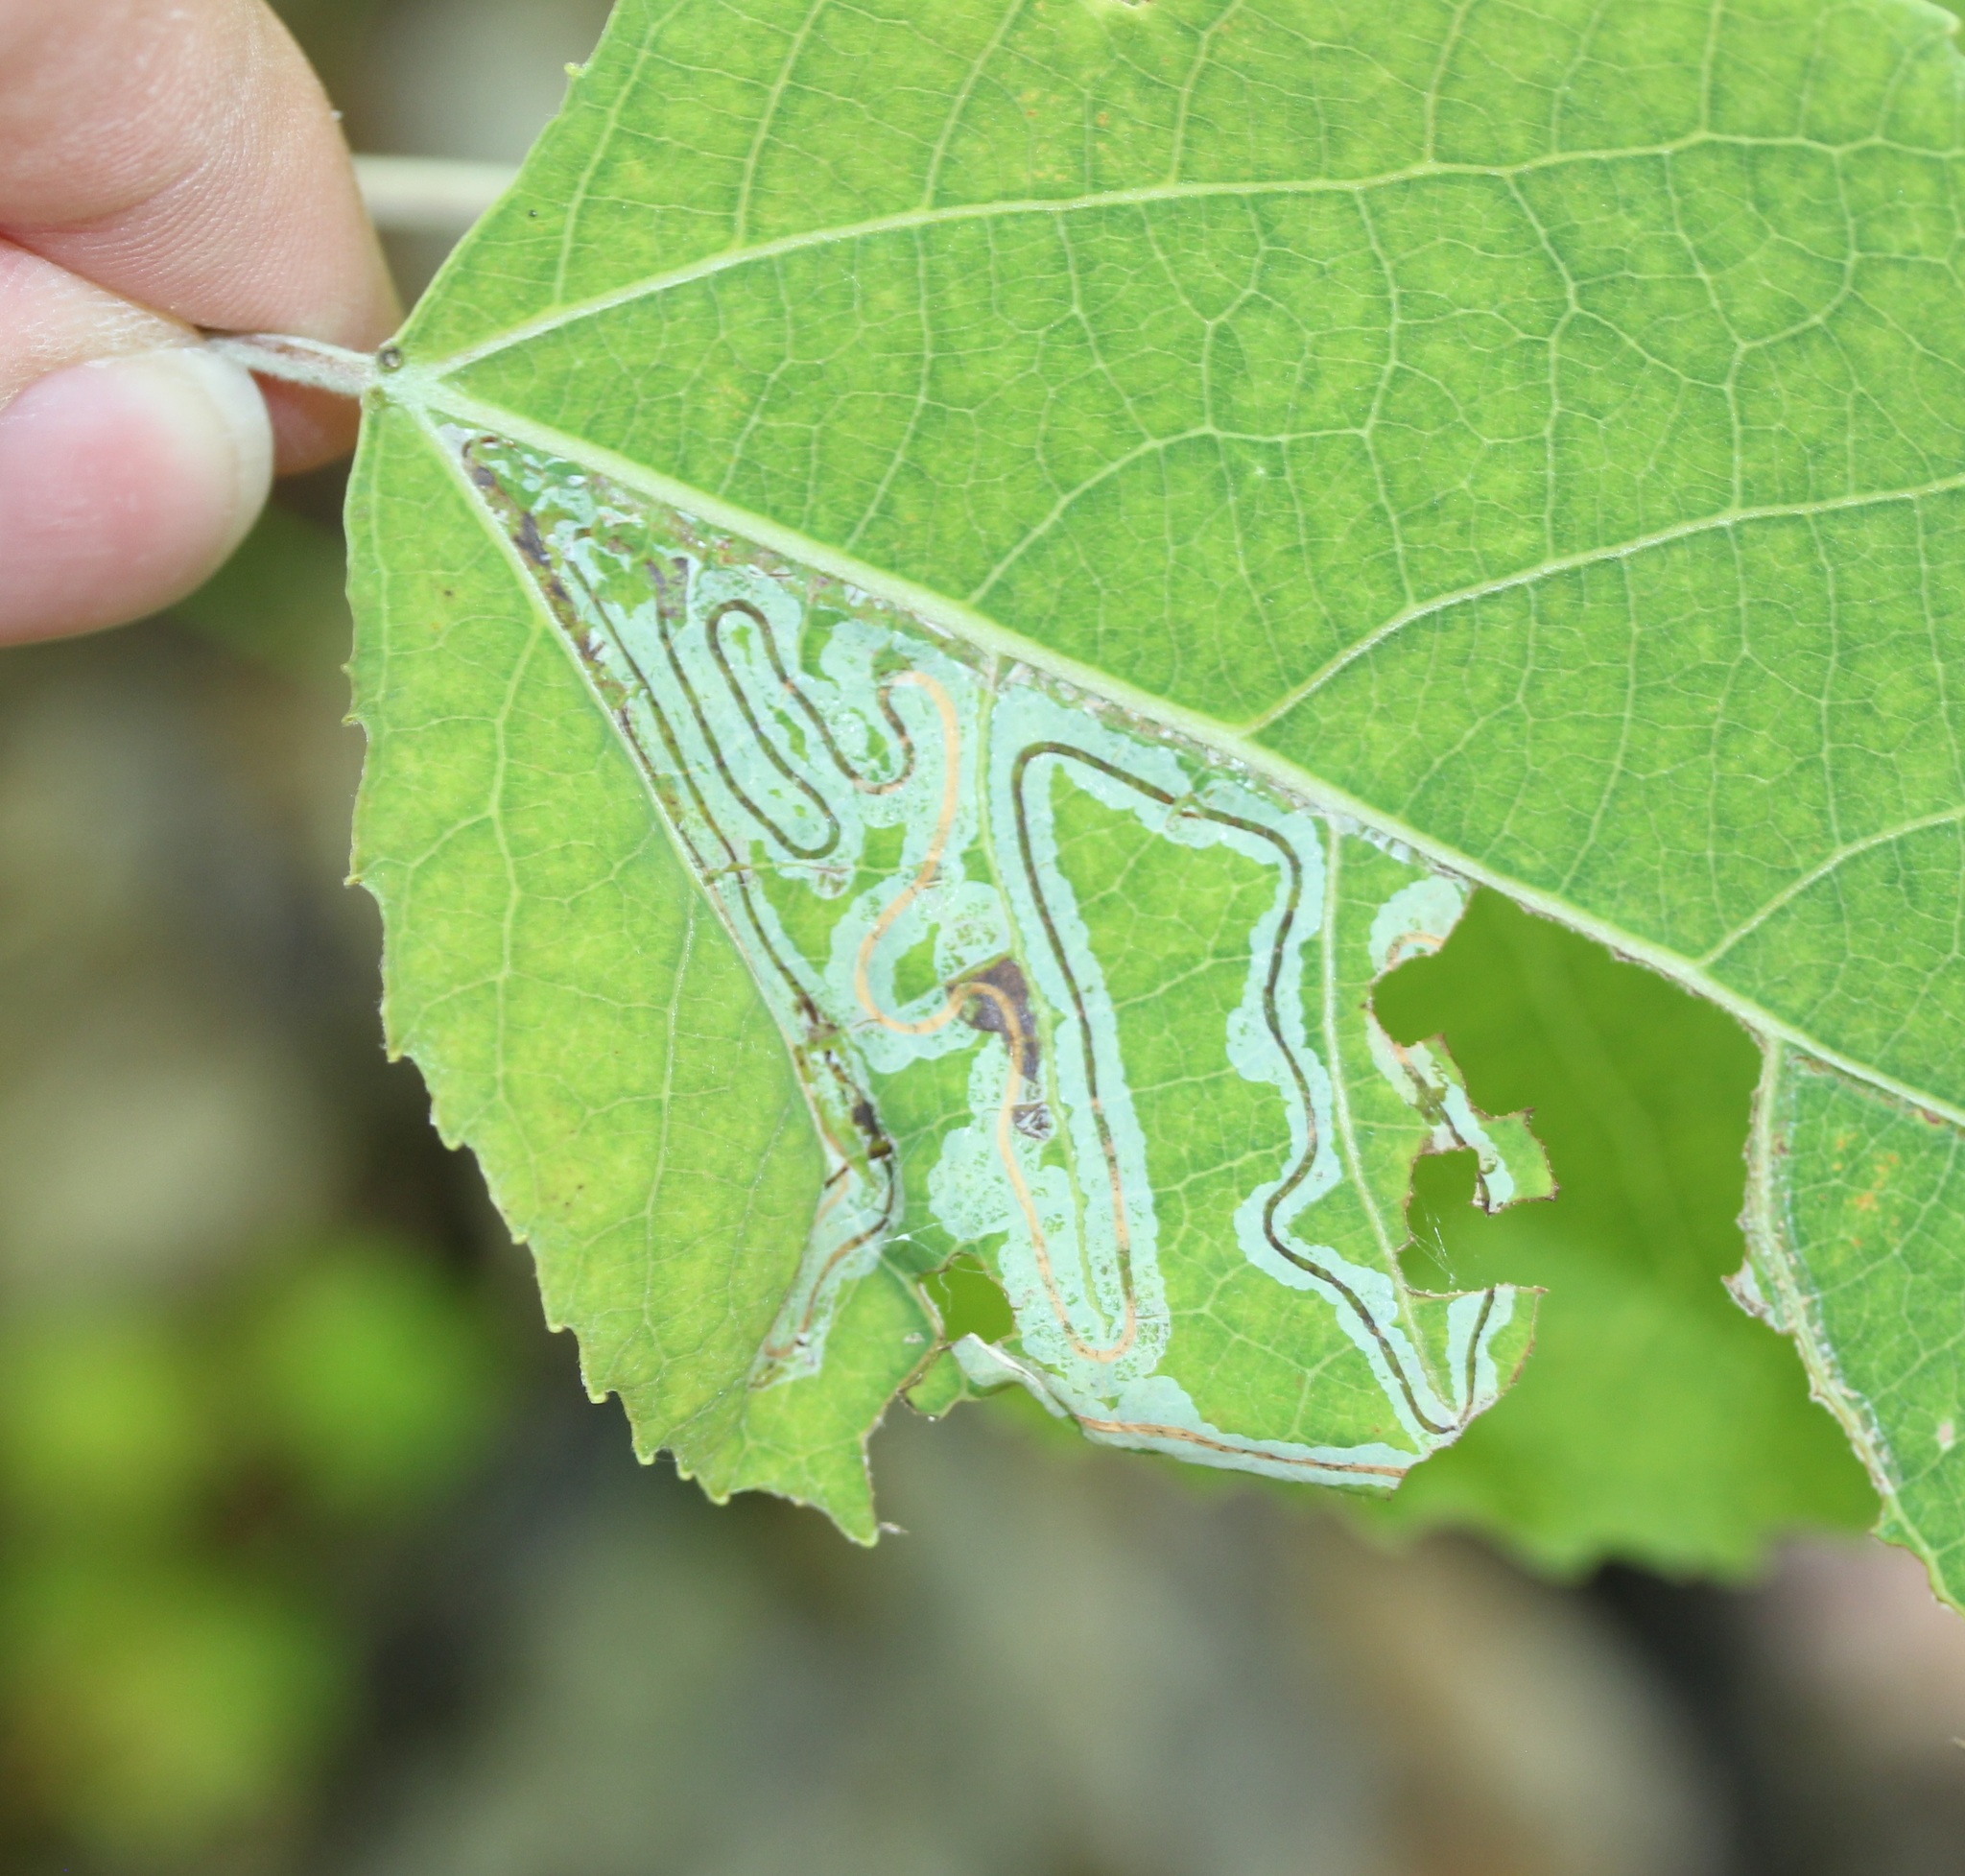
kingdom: Animalia
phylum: Arthropoda
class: Insecta
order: Lepidoptera
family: Gracillariidae
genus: Phyllocnistis
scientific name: Phyllocnistis populiella
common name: Aspen serpentine leafminer moth
